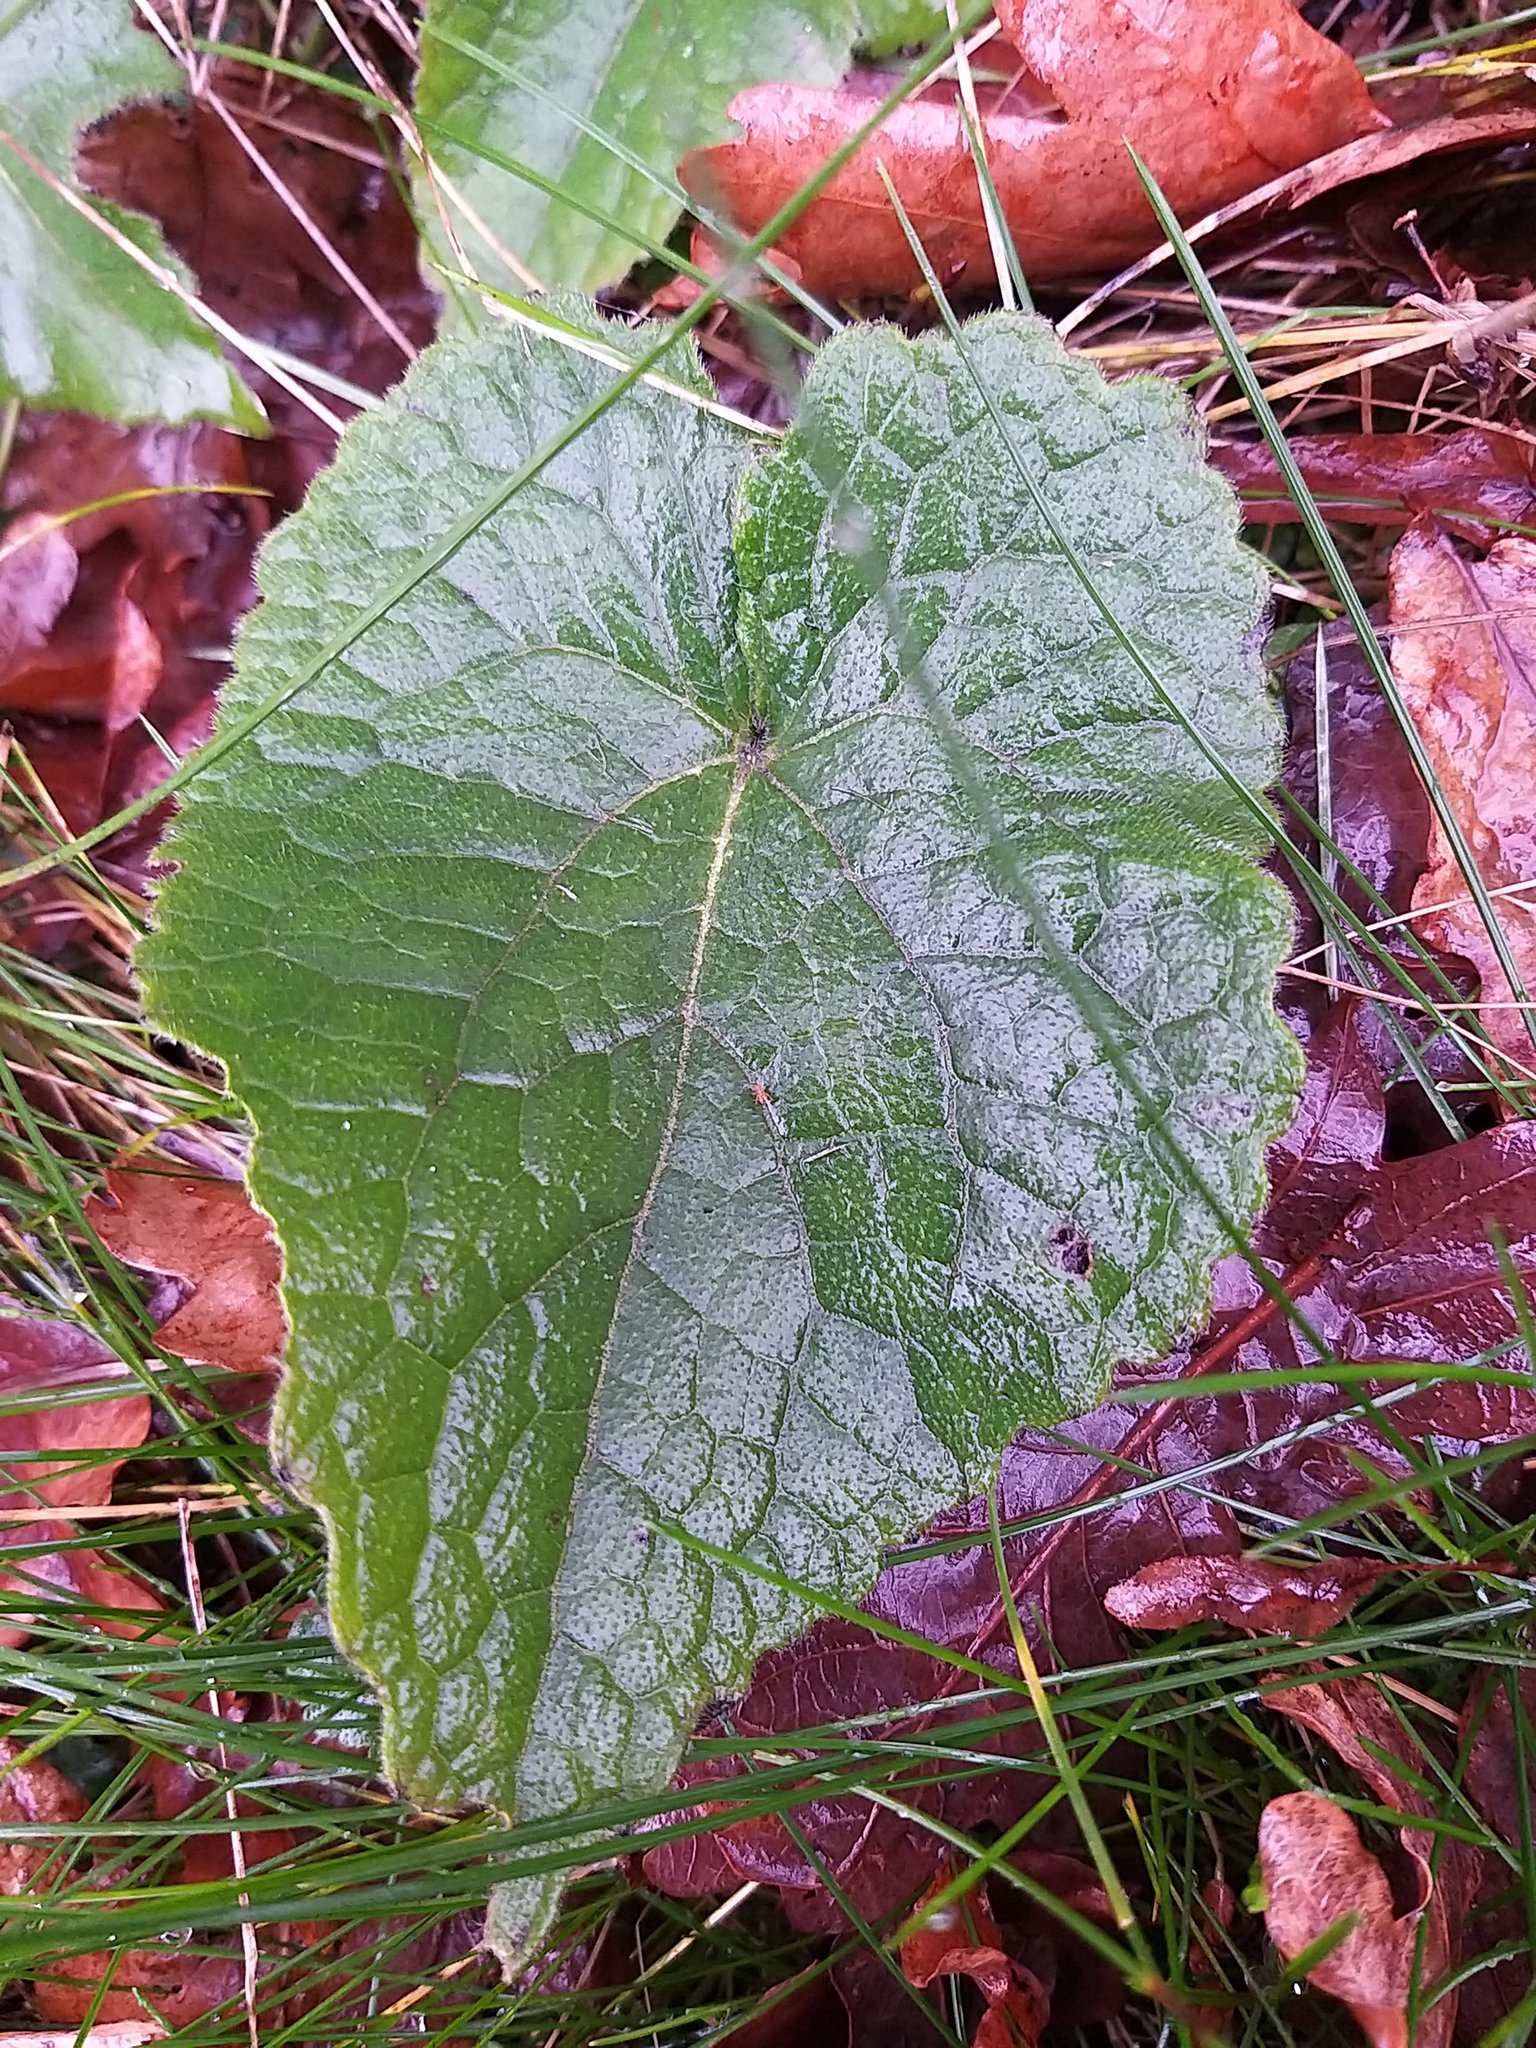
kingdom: Plantae
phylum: Tracheophyta
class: Magnoliopsida
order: Brassicales
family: Brassicaceae
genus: Lunaria
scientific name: Lunaria annua
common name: Honesty
